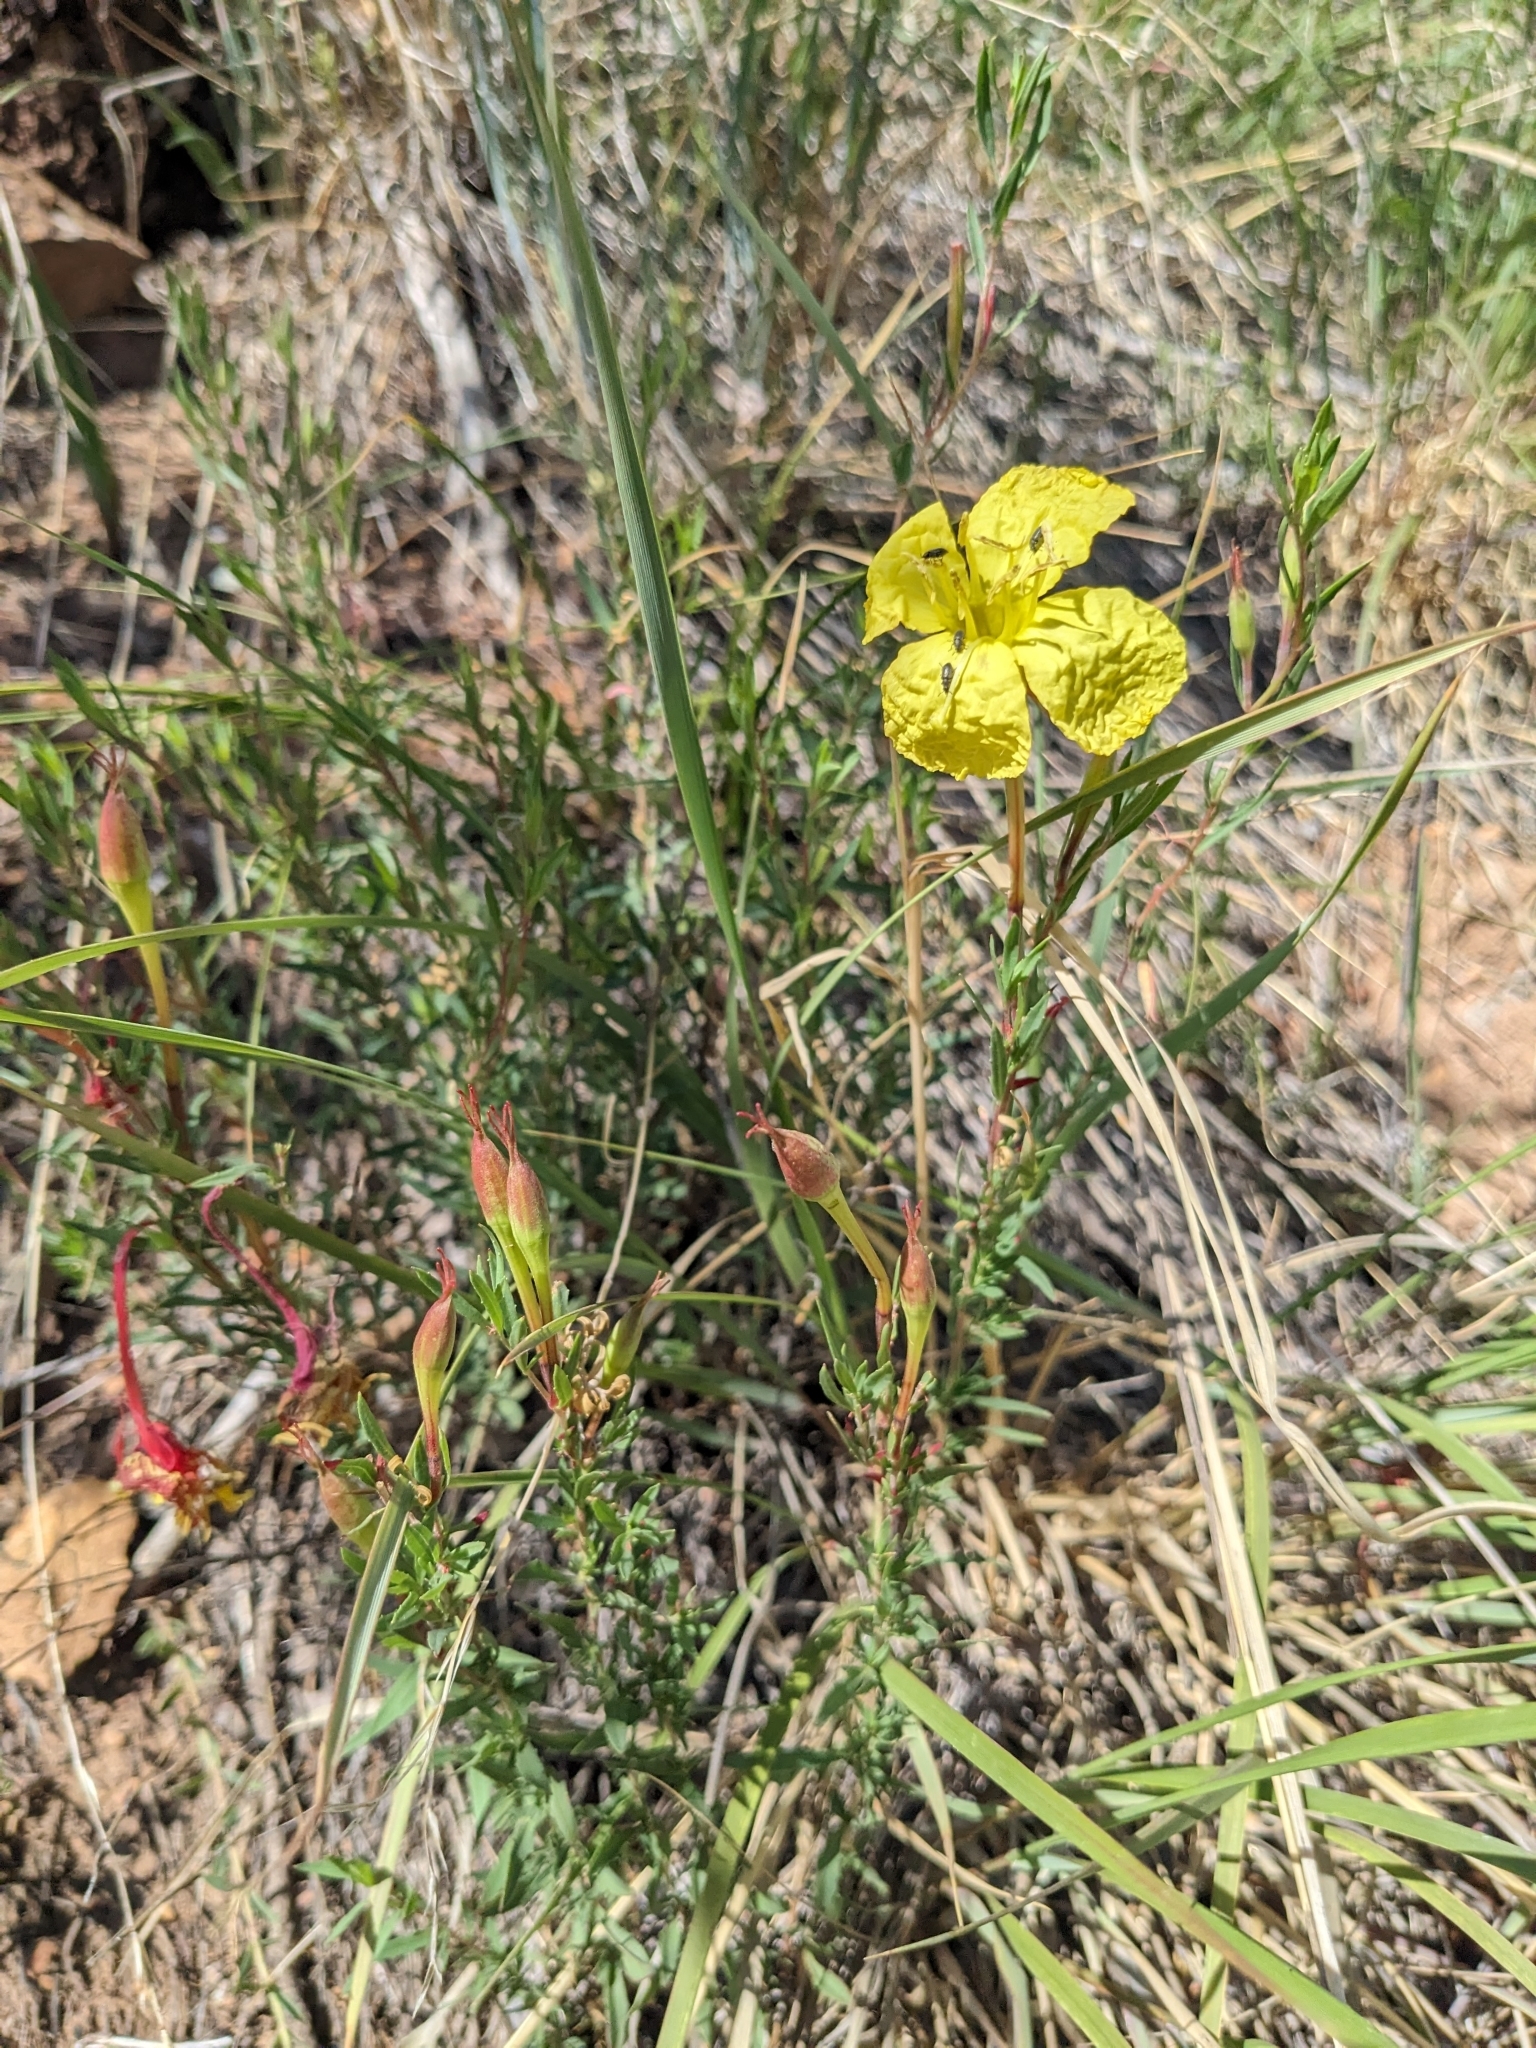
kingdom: Plantae
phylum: Tracheophyta
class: Magnoliopsida
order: Myrtales
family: Onagraceae
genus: Oenothera
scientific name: Oenothera toumeyi
